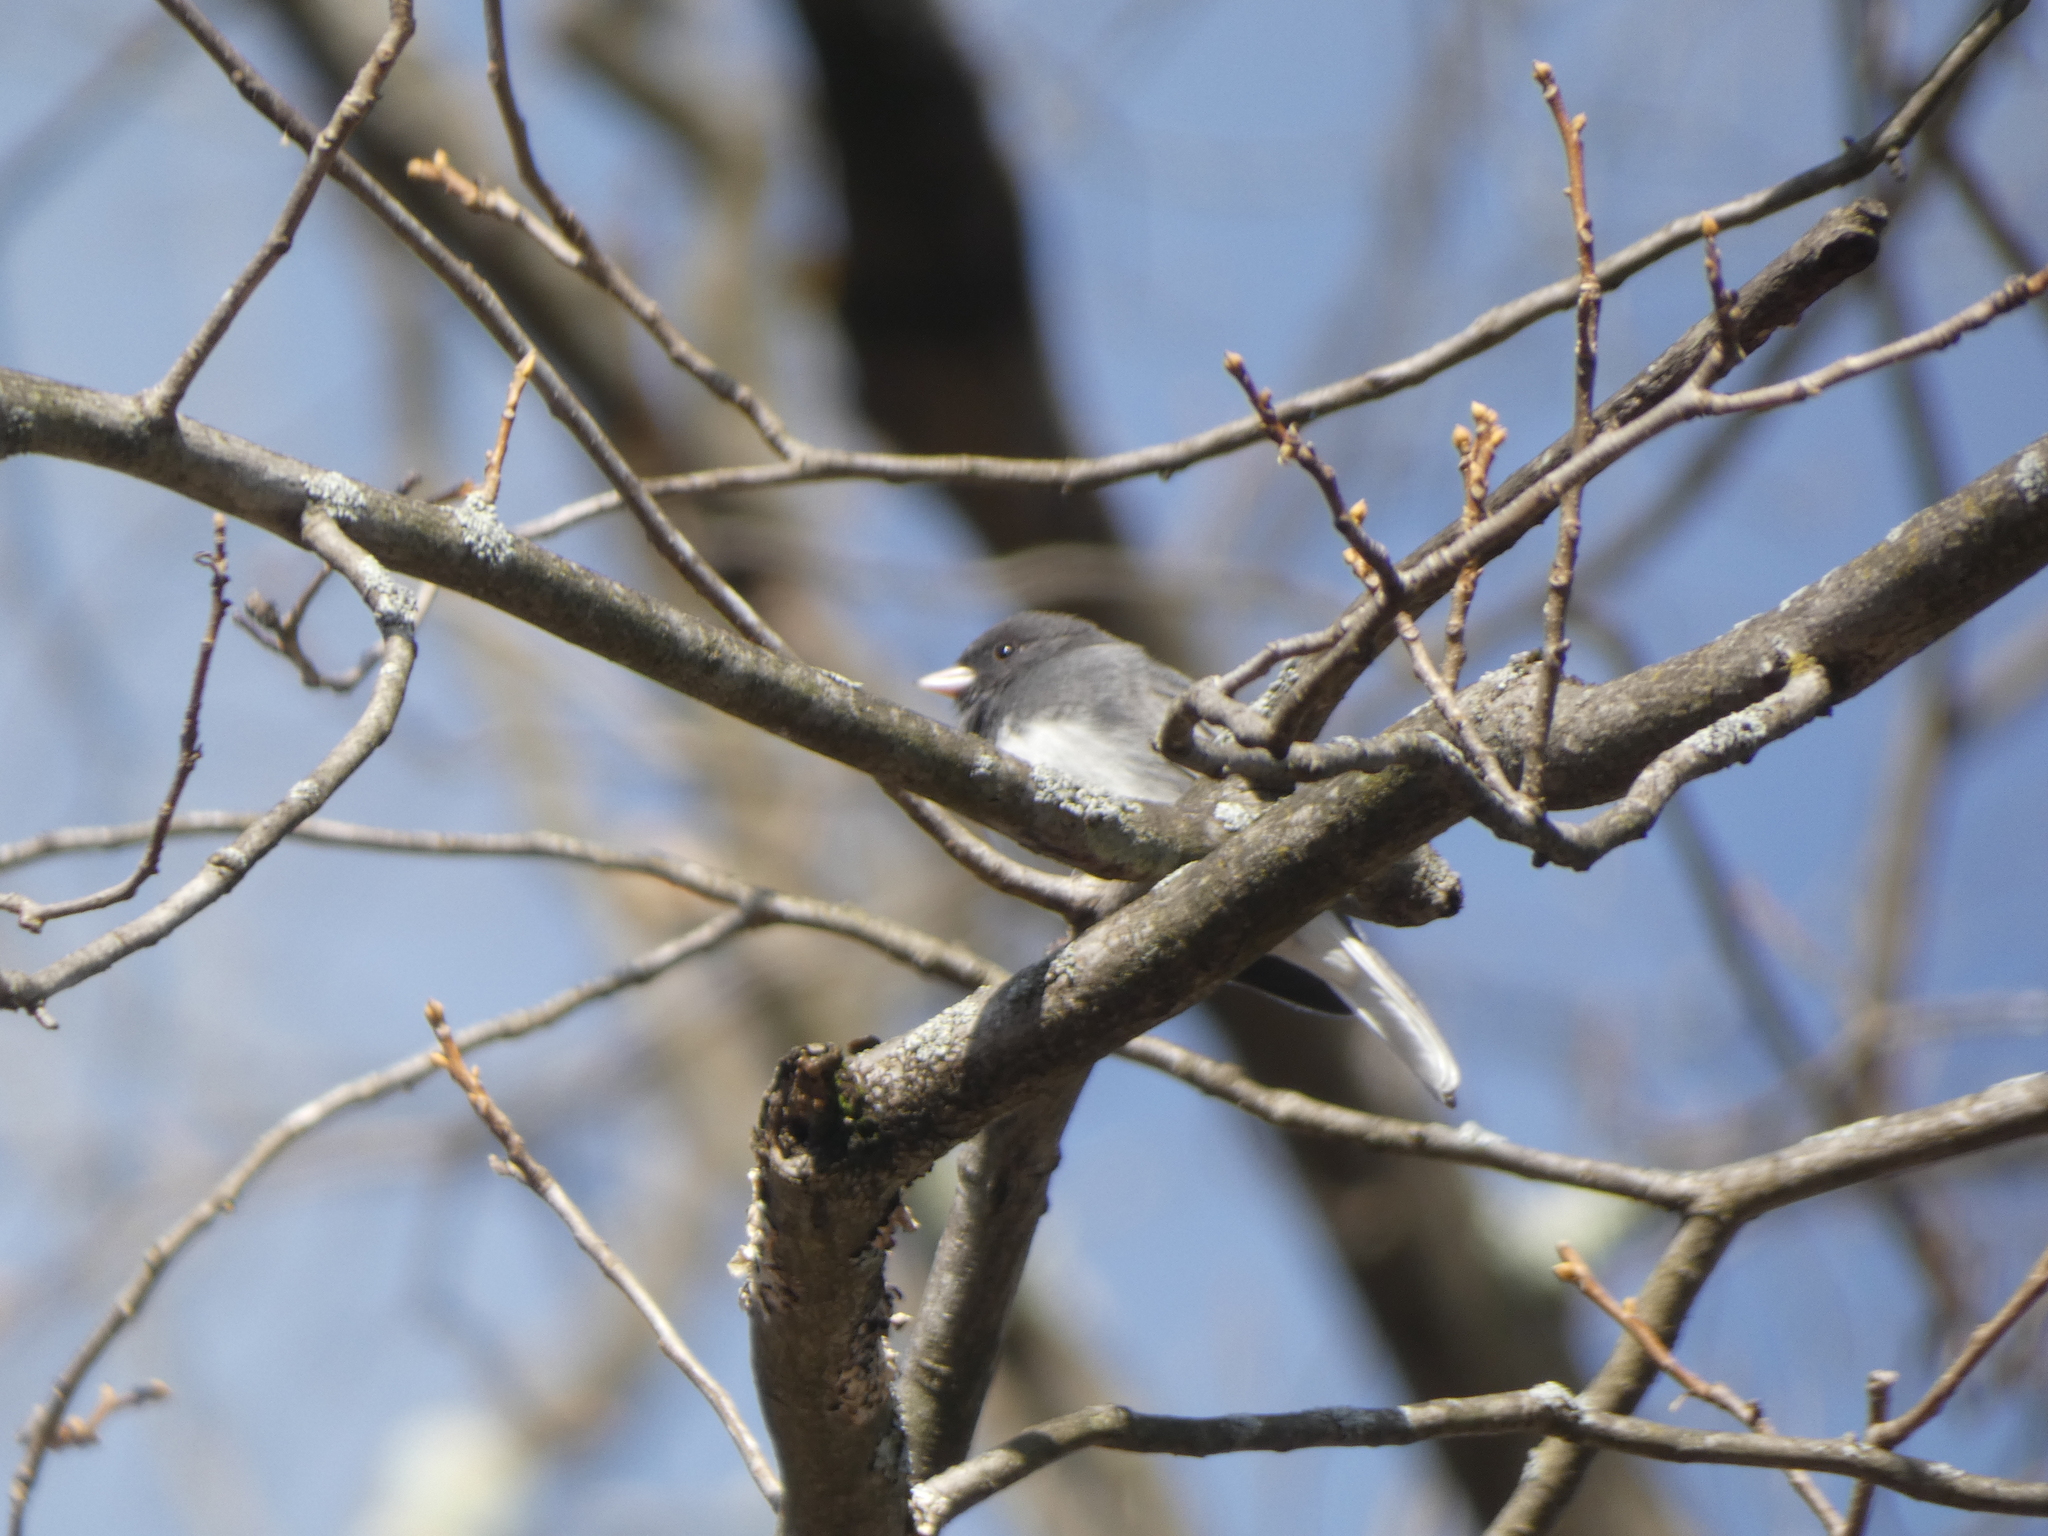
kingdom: Animalia
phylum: Chordata
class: Aves
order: Passeriformes
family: Passerellidae
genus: Junco
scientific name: Junco hyemalis
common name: Dark-eyed junco
